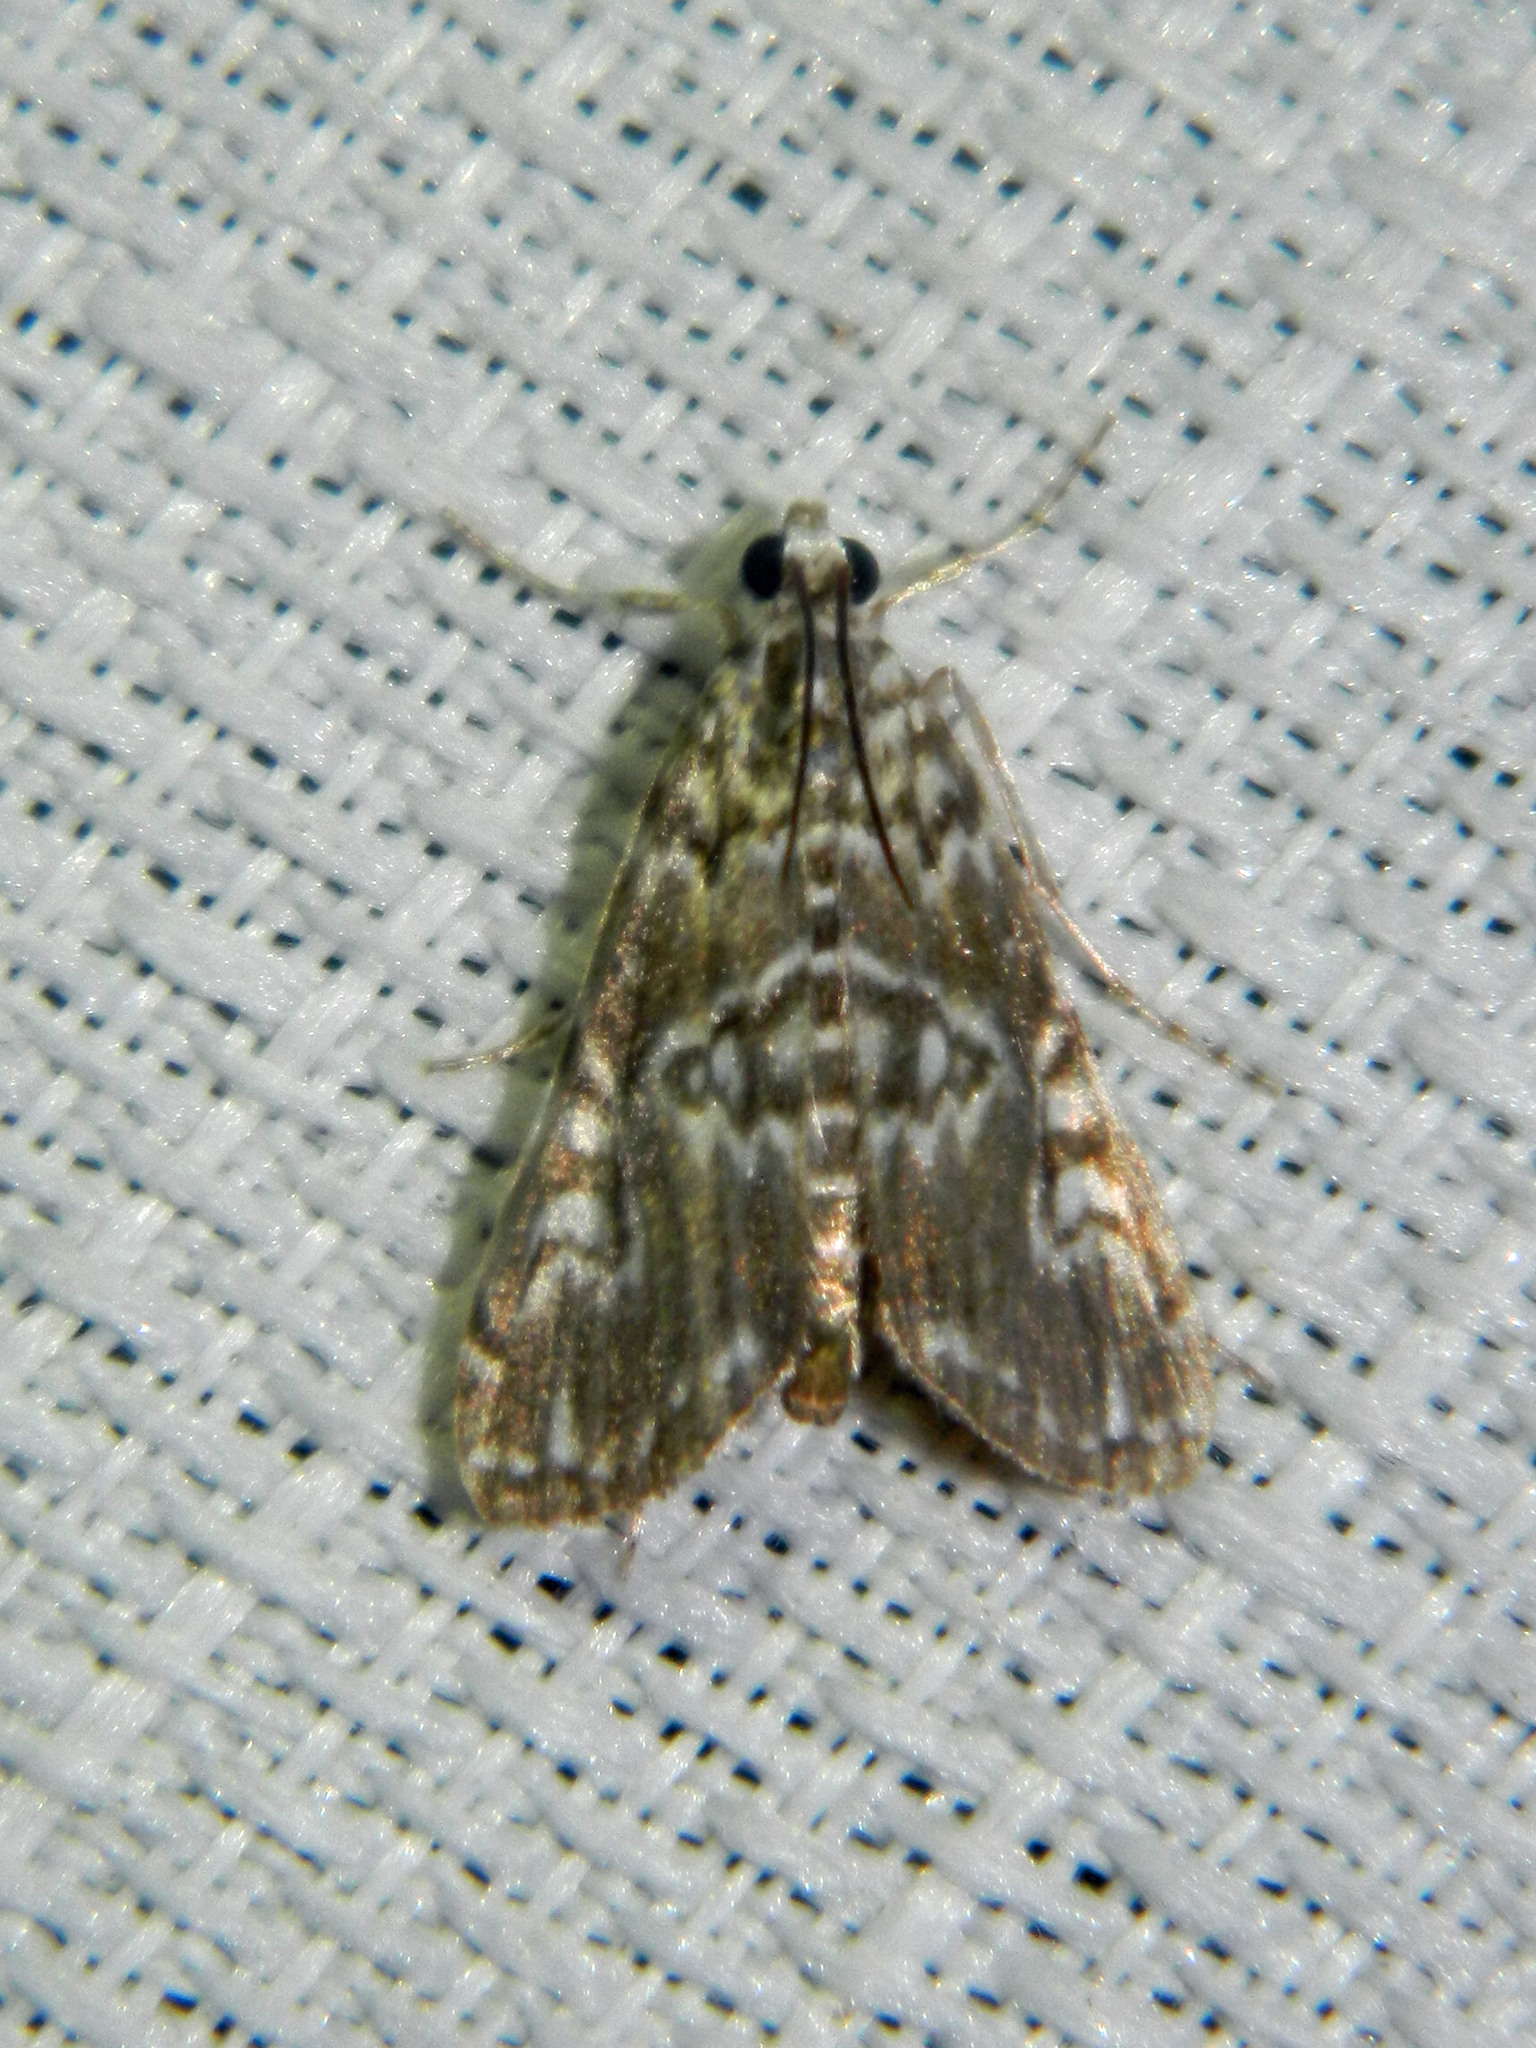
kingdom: Animalia
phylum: Arthropoda
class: Insecta
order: Lepidoptera
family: Crambidae
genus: Elophila
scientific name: Elophila gyralis
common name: Waterlily borer moth
